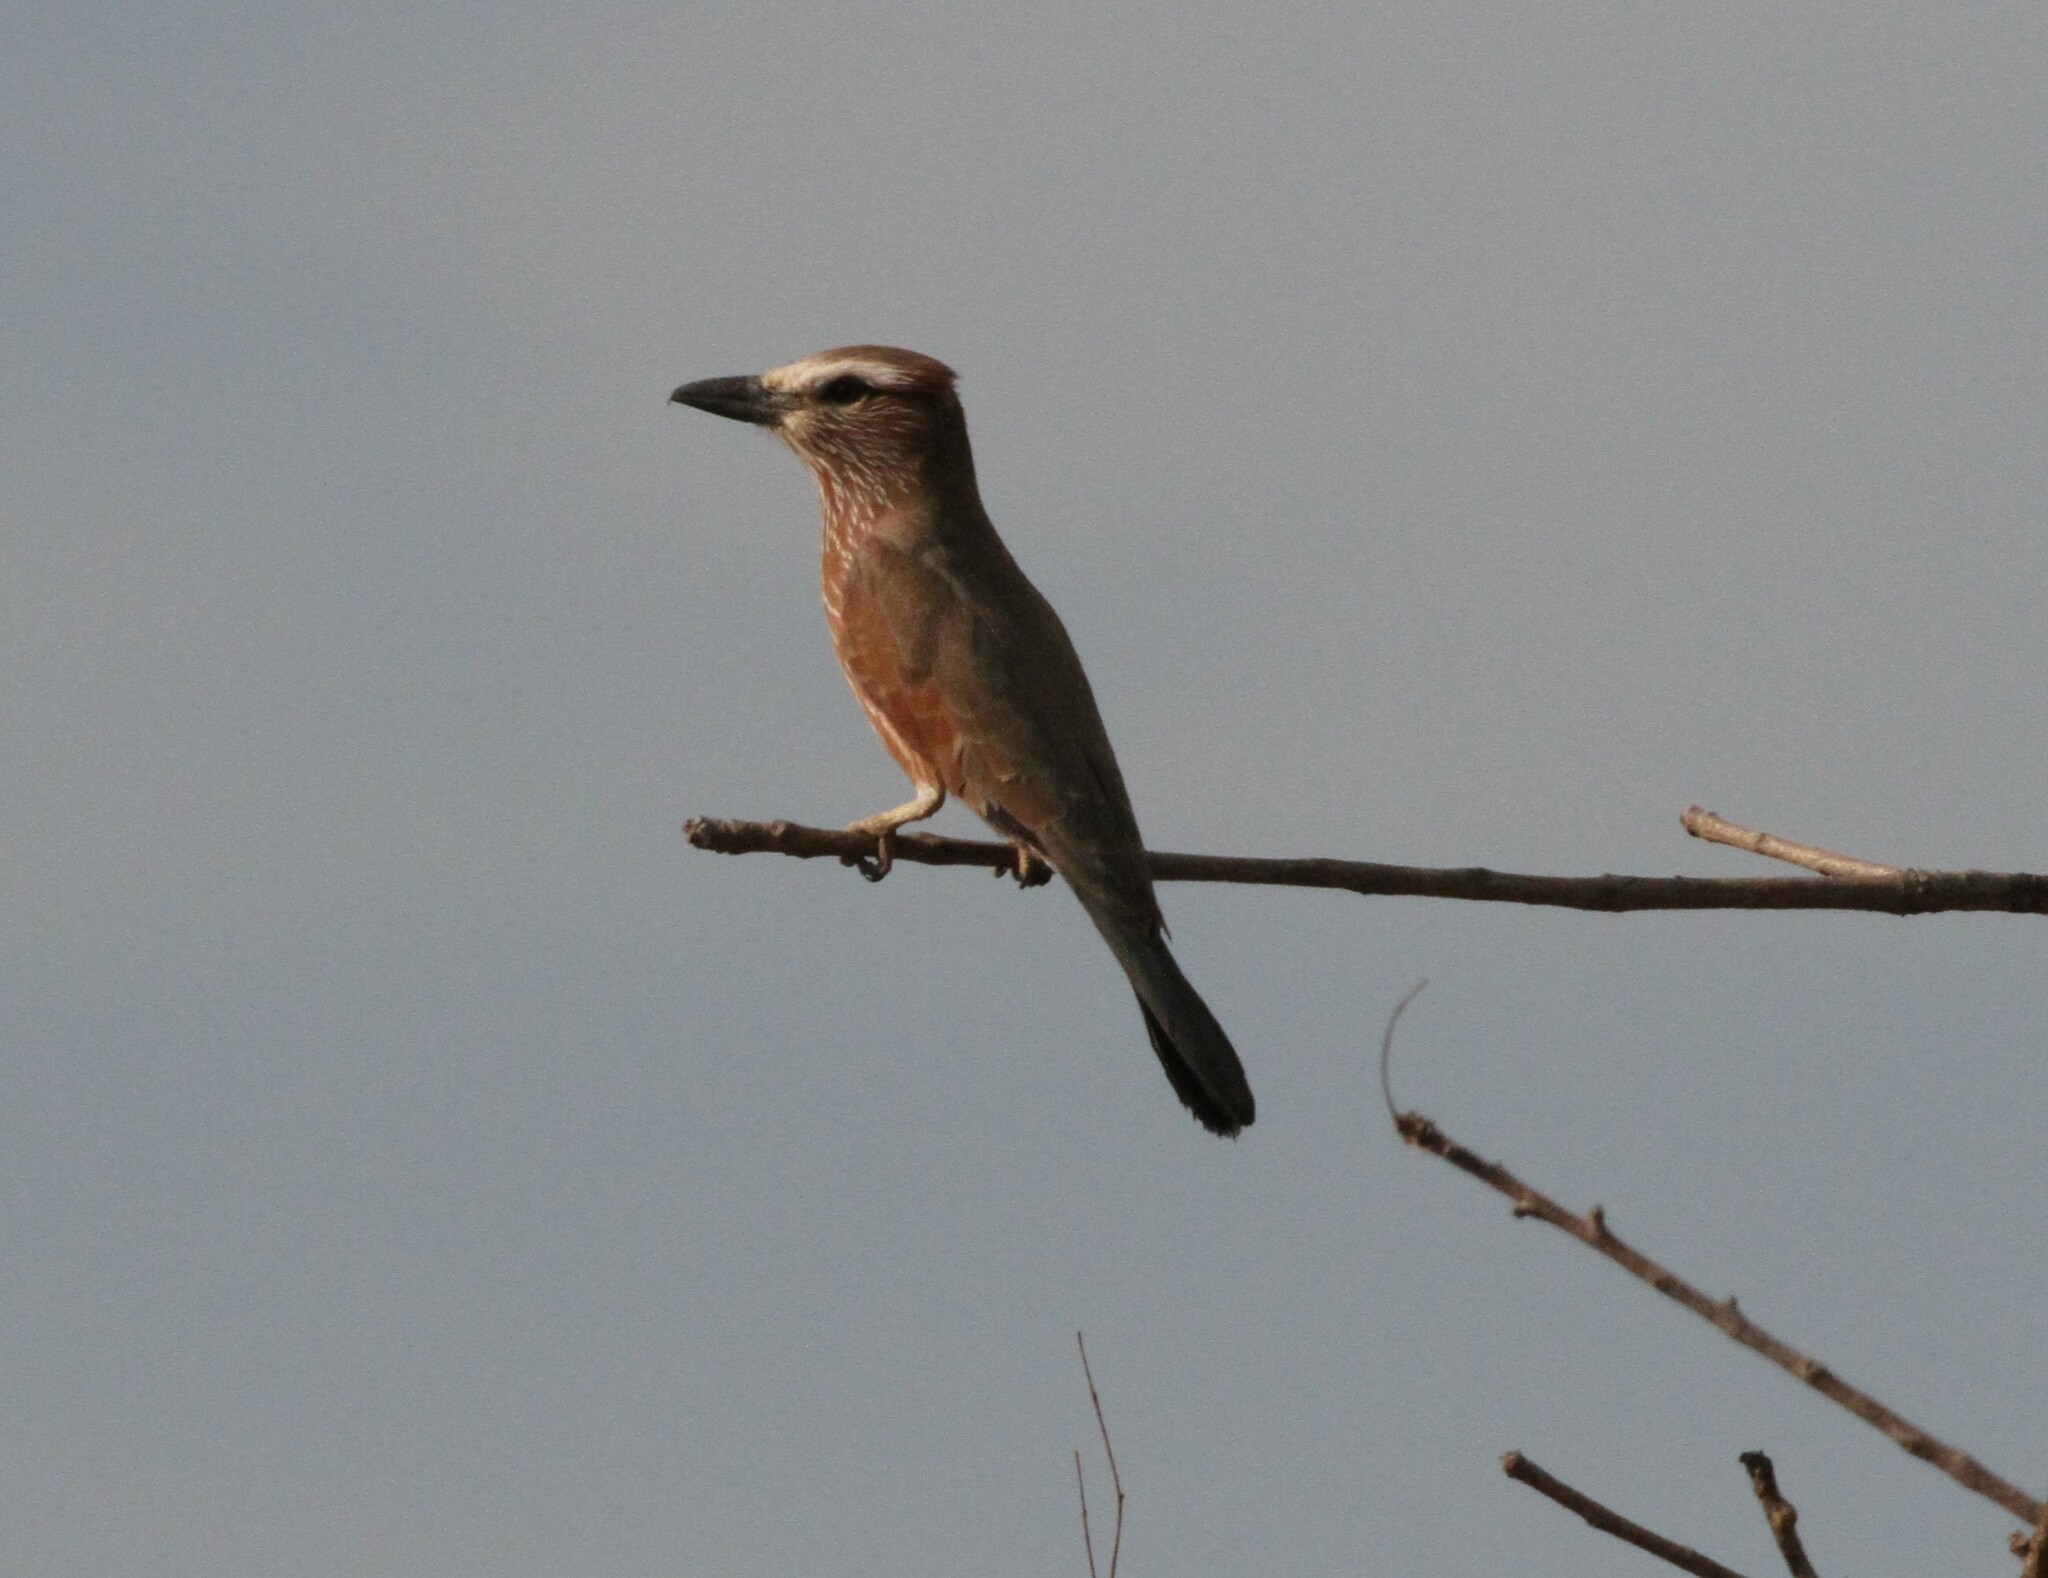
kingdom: Animalia
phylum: Chordata
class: Aves
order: Coraciiformes
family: Coraciidae
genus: Coracias
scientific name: Coracias naevius
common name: Purple roller
